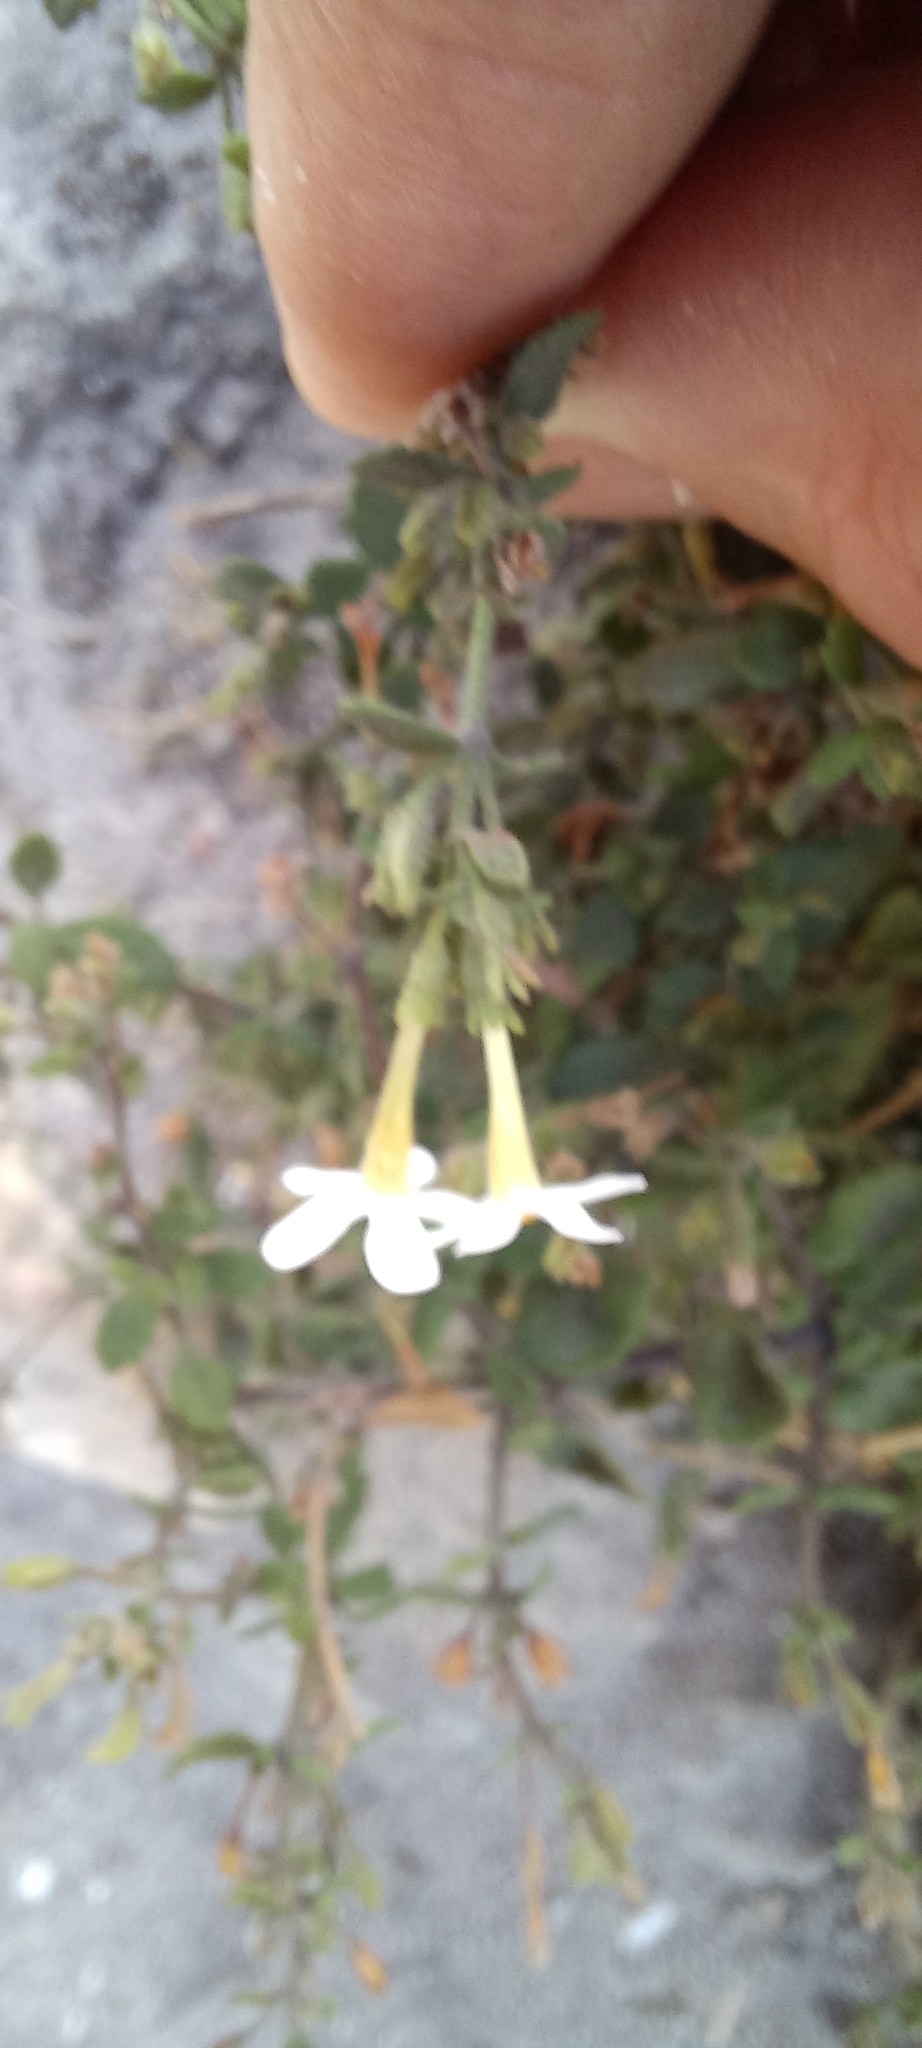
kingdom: Plantae
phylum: Tracheophyta
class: Magnoliopsida
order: Lamiales
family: Scrophulariaceae
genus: Chaenostoma
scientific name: Chaenostoma hispidum
